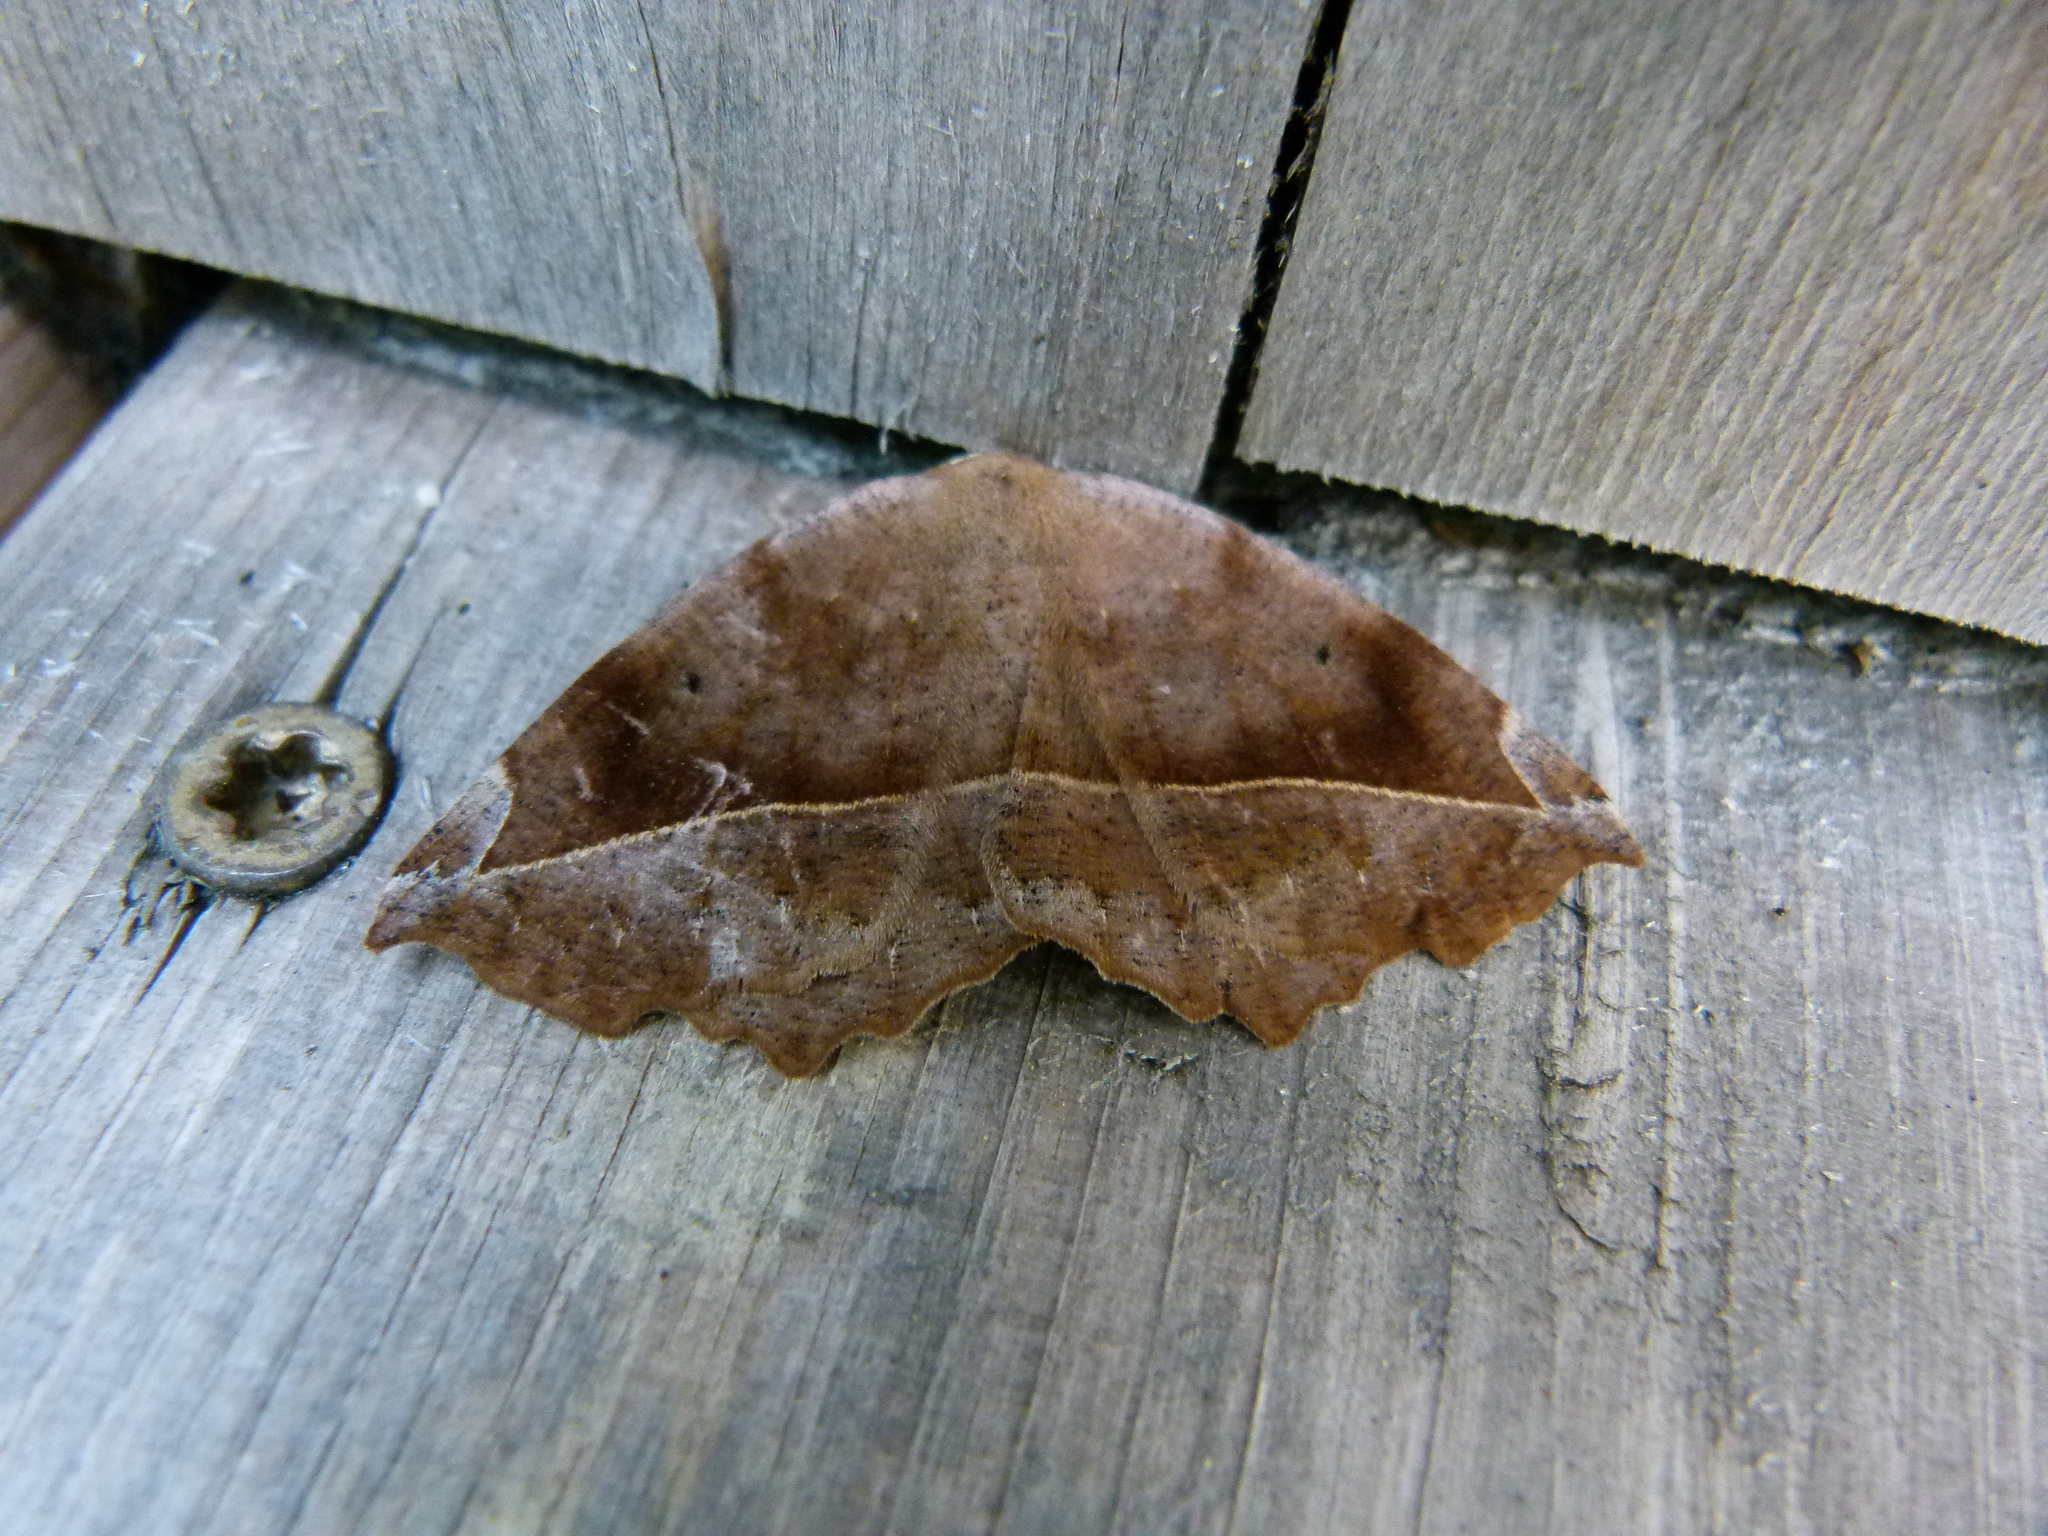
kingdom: Animalia
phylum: Arthropoda
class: Insecta
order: Lepidoptera
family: Geometridae
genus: Eutrapela
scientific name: Eutrapela clemataria
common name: Curved-toothed geometer
